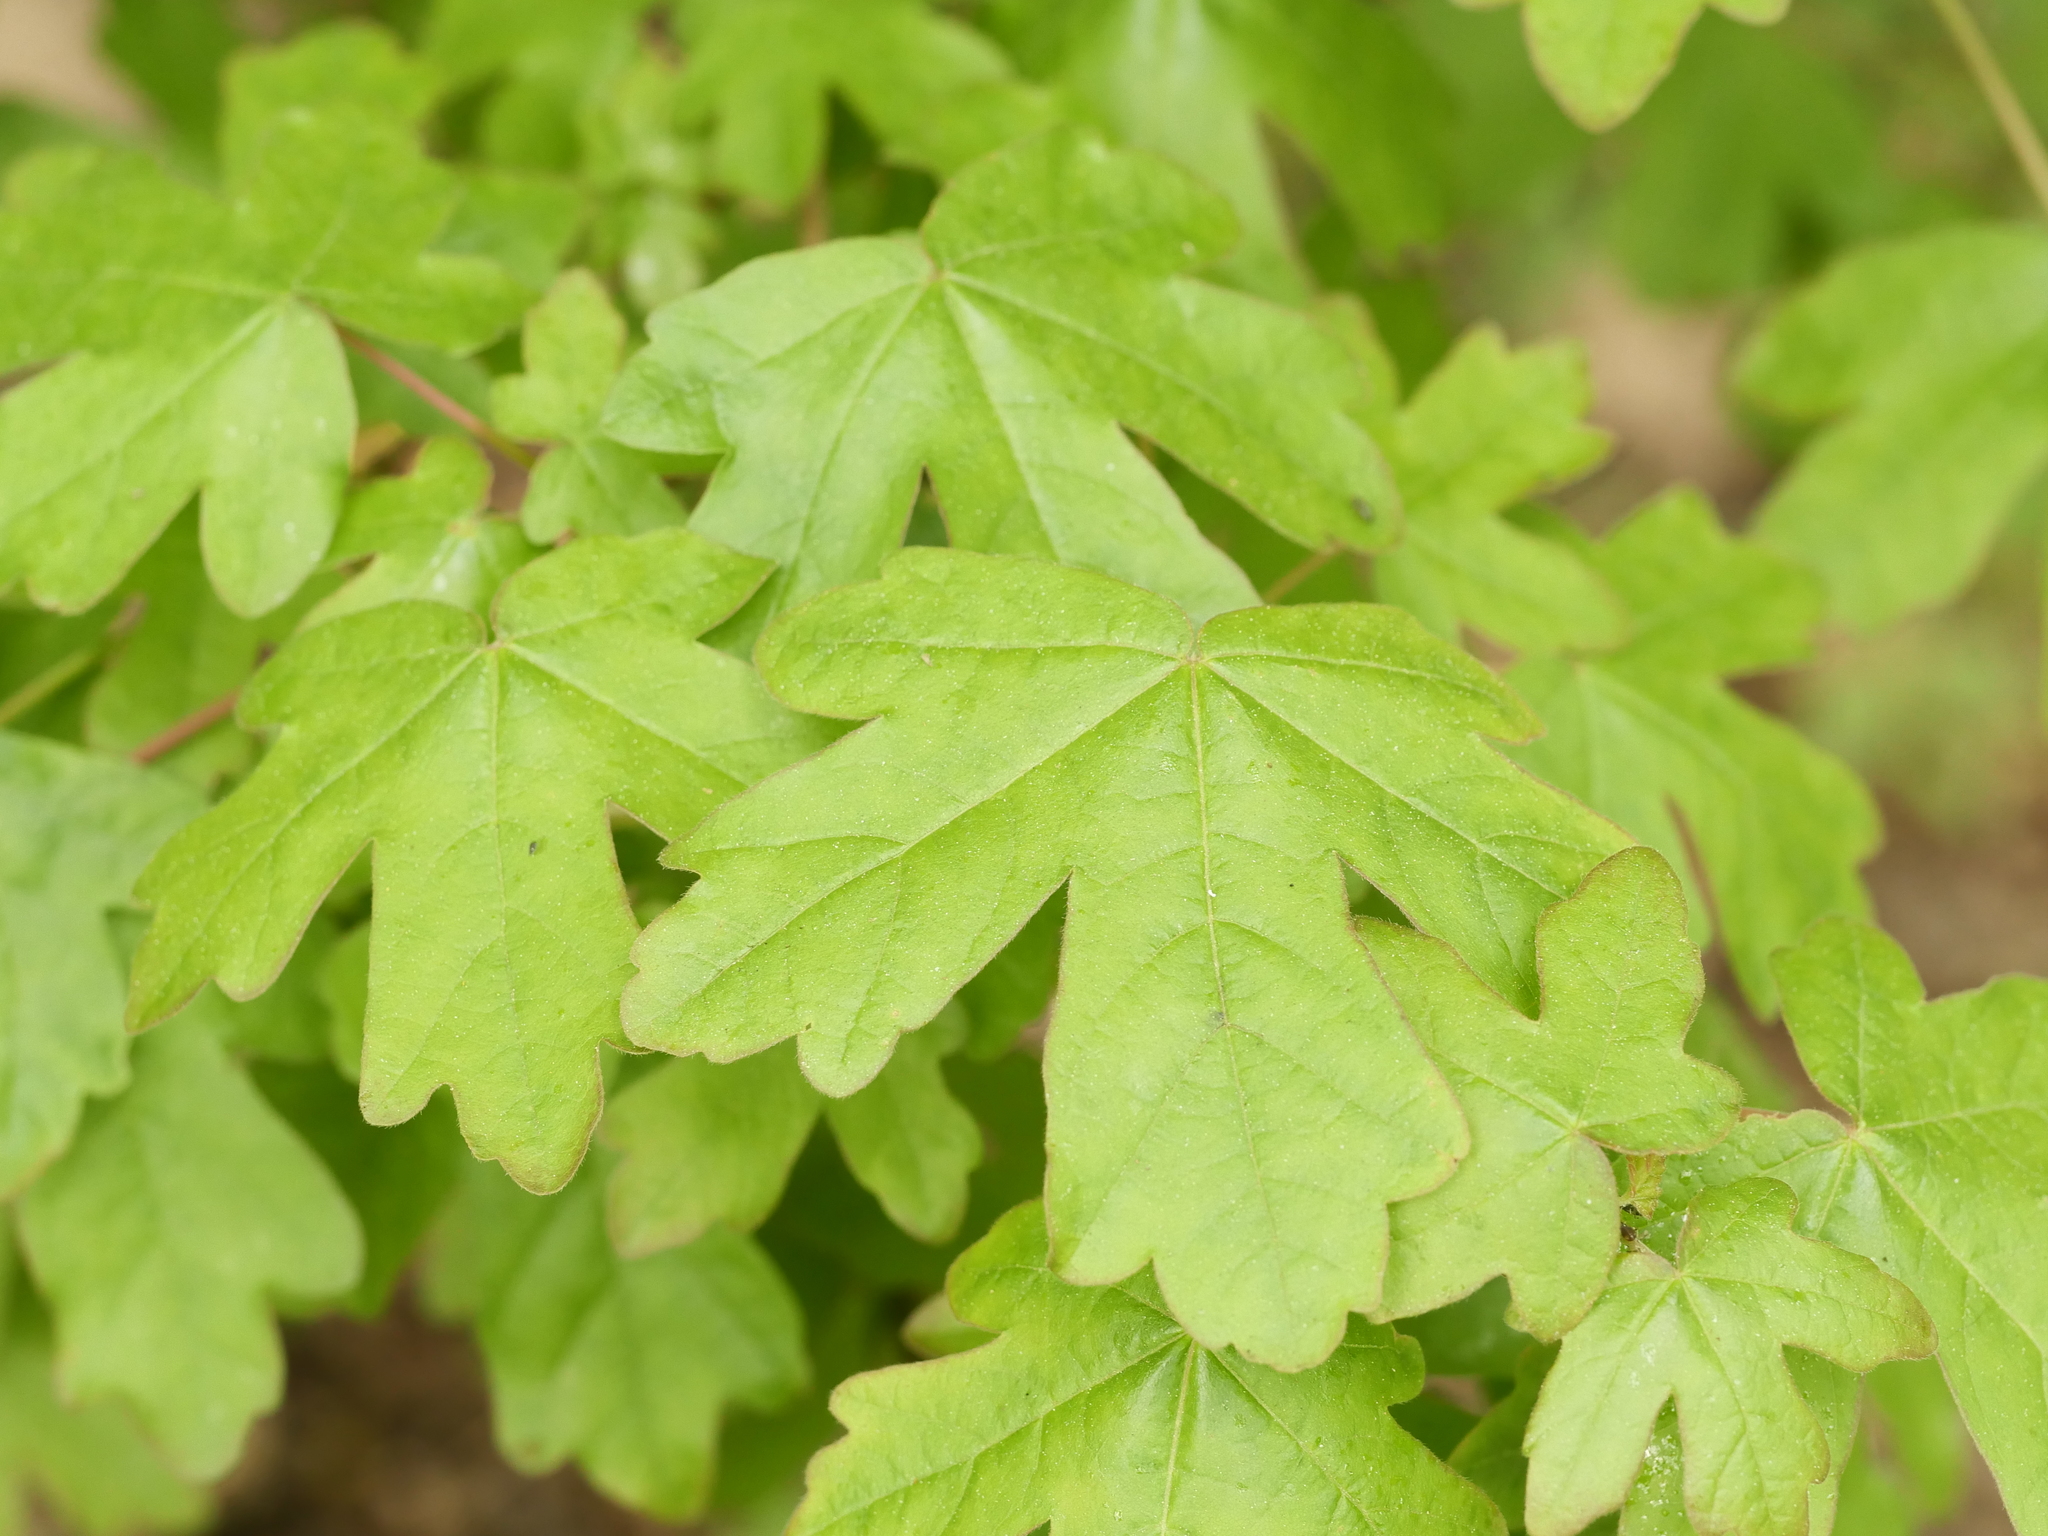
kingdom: Plantae
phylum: Tracheophyta
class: Magnoliopsida
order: Sapindales
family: Sapindaceae
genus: Acer
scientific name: Acer campestre
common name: Field maple
